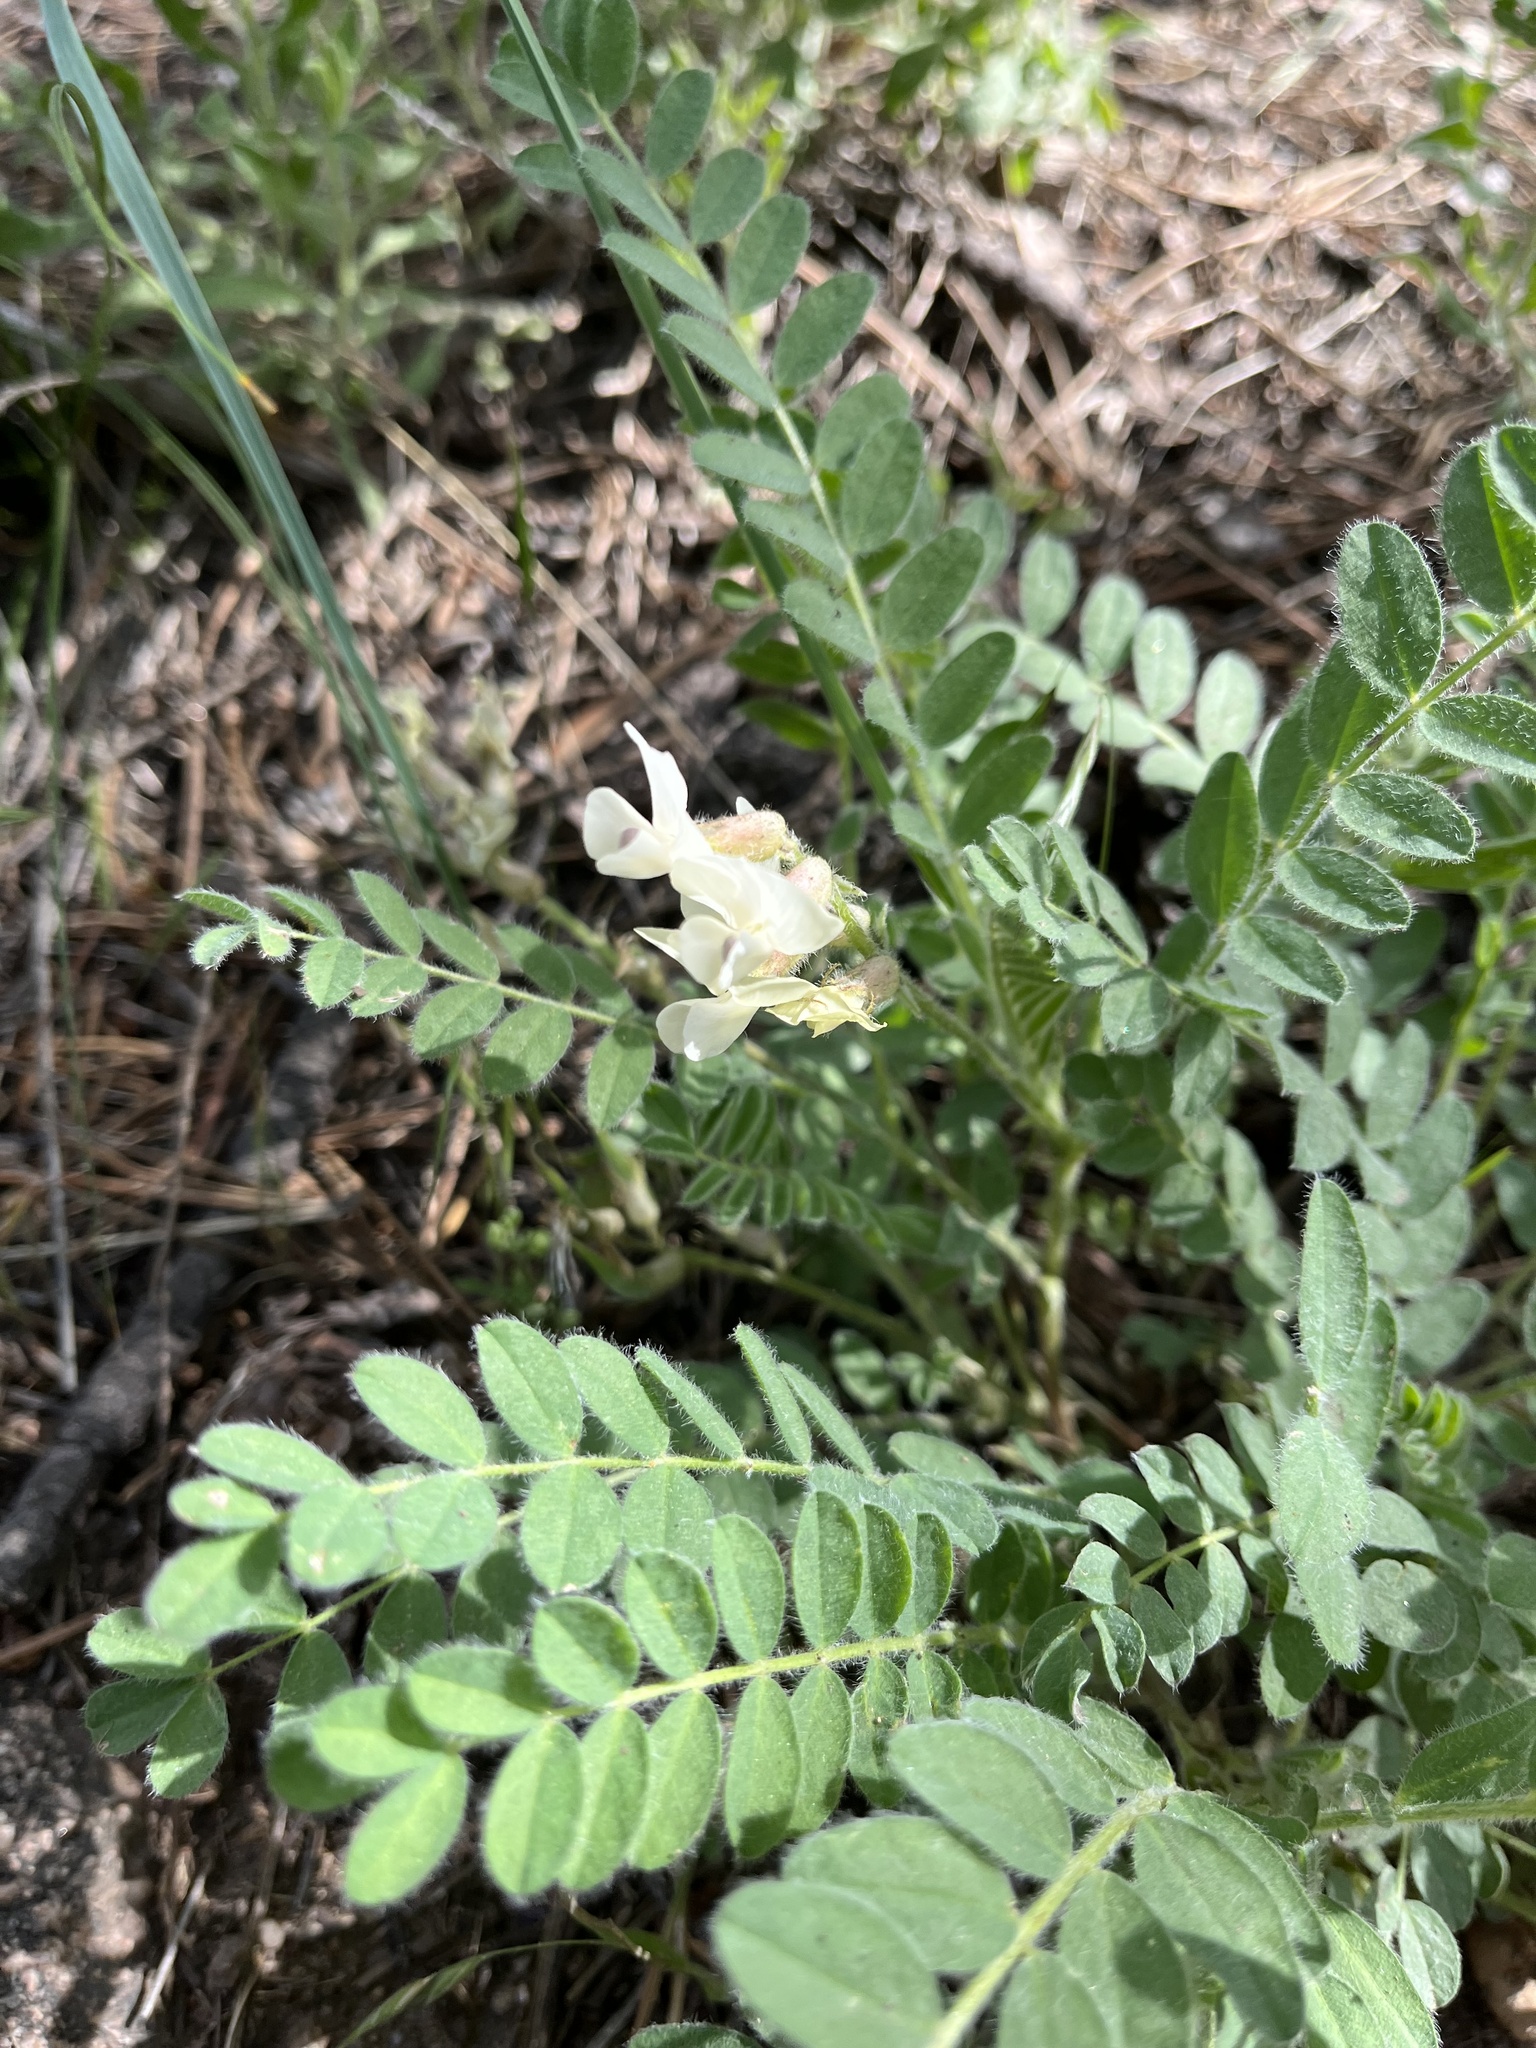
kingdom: Plantae
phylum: Tracheophyta
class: Magnoliopsida
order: Fabales
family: Fabaceae
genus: Astragalus
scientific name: Astragalus parryi
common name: Parry milk-vetch
